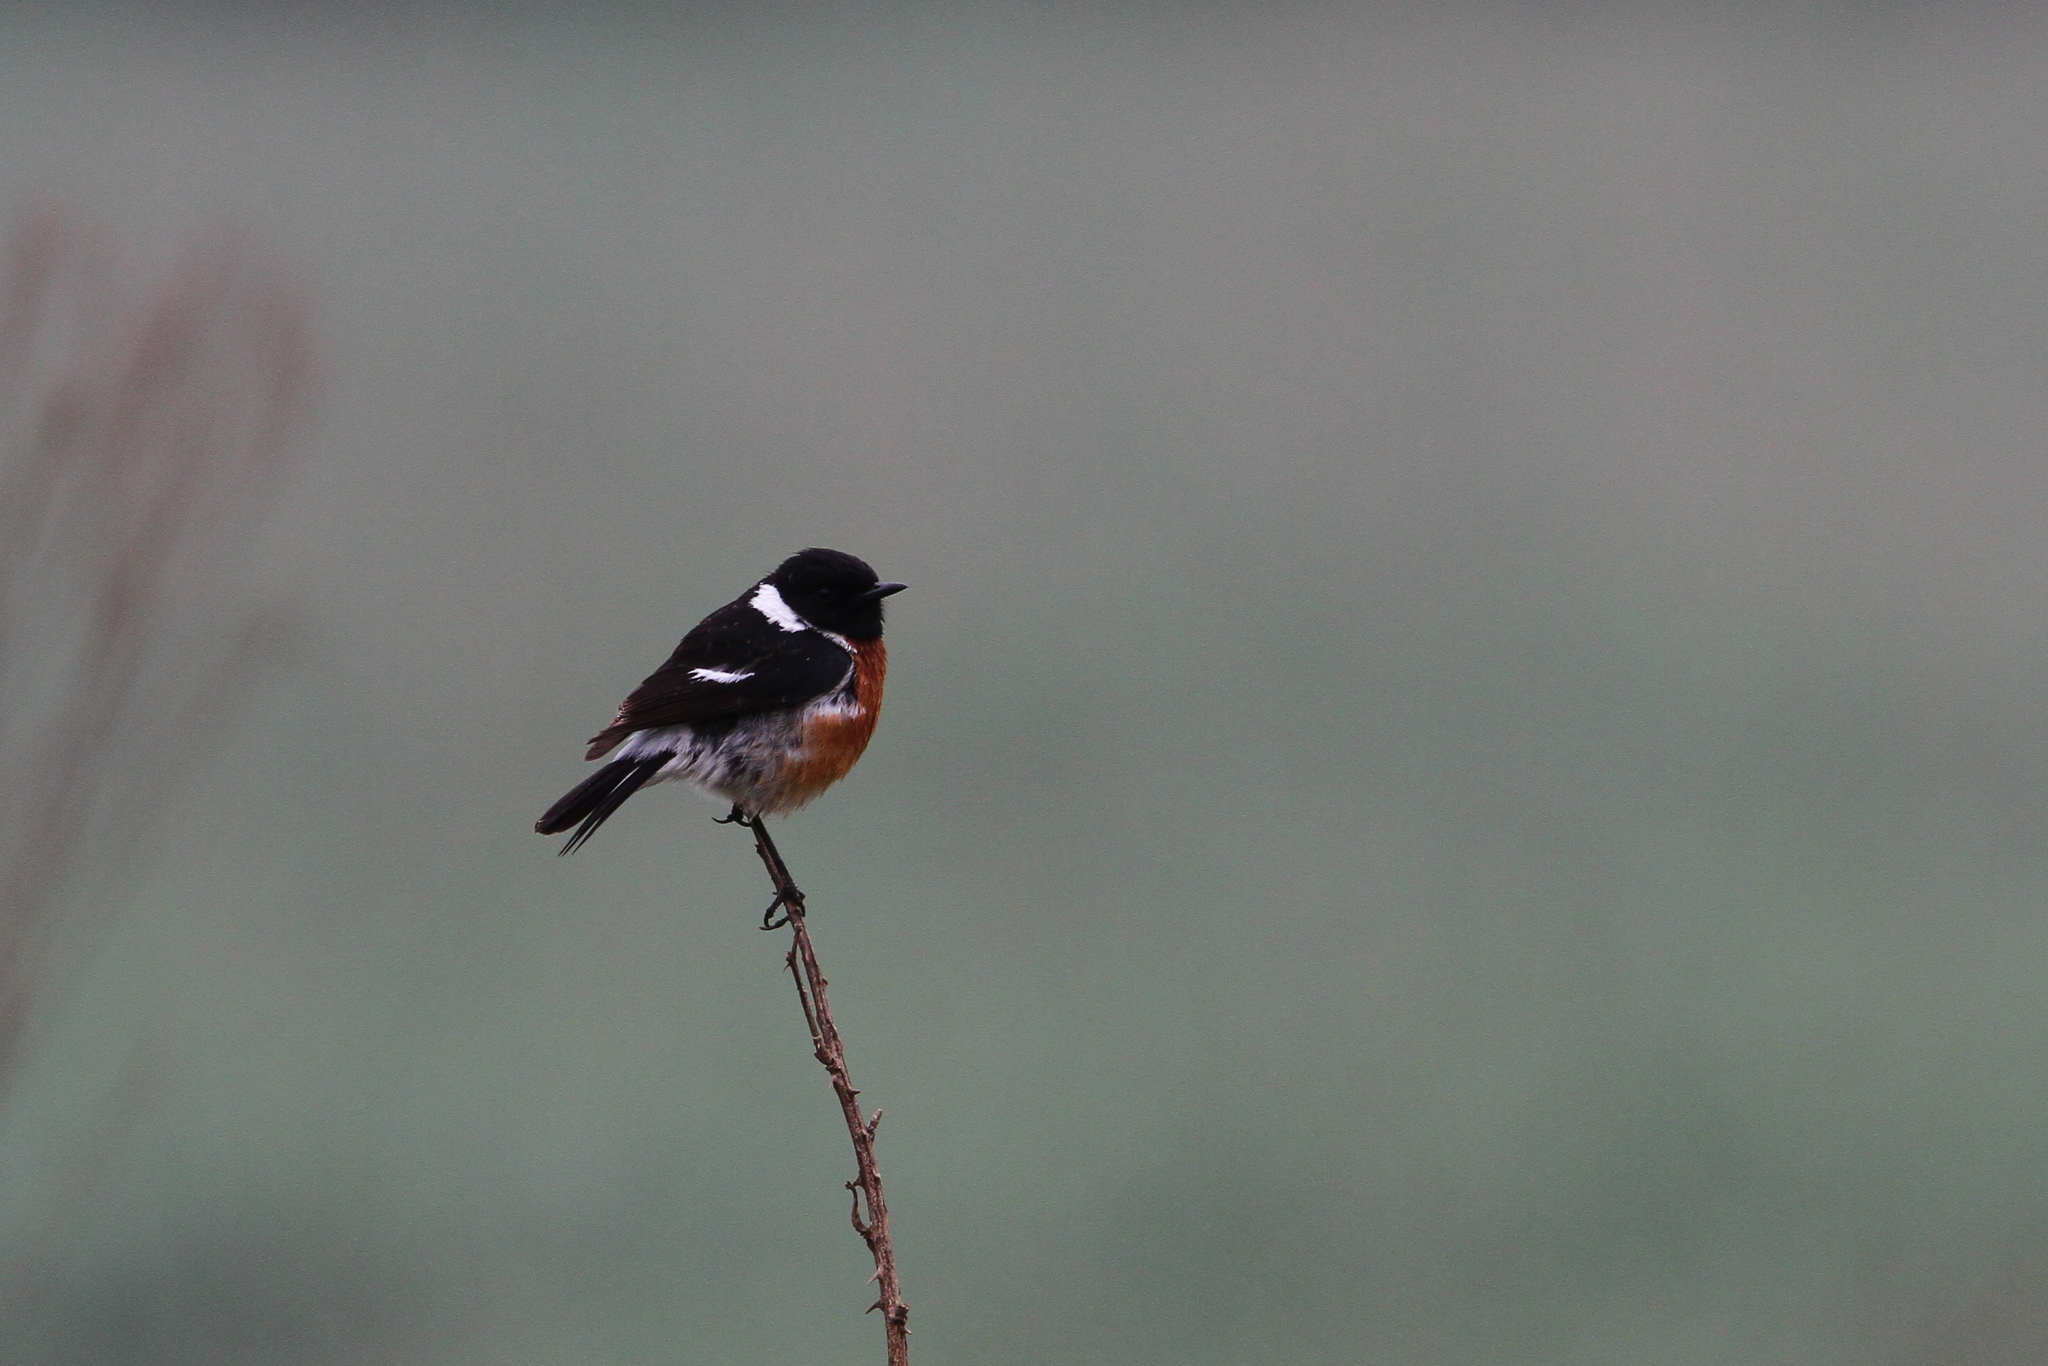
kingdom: Animalia
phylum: Chordata
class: Aves
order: Passeriformes
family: Muscicapidae
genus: Saxicola
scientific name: Saxicola torquatus
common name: African stonechat
